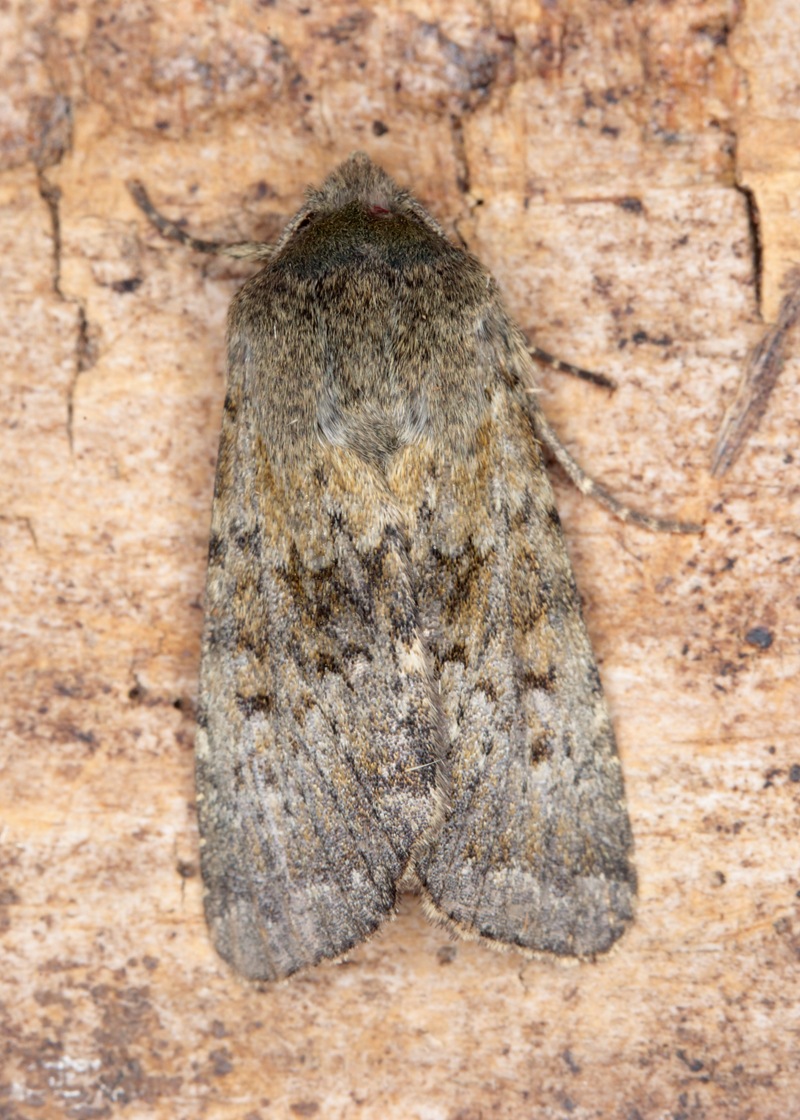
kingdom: Animalia
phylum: Arthropoda
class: Insecta
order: Lepidoptera
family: Noctuidae
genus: Ichneutica
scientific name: Ichneutica moderata
